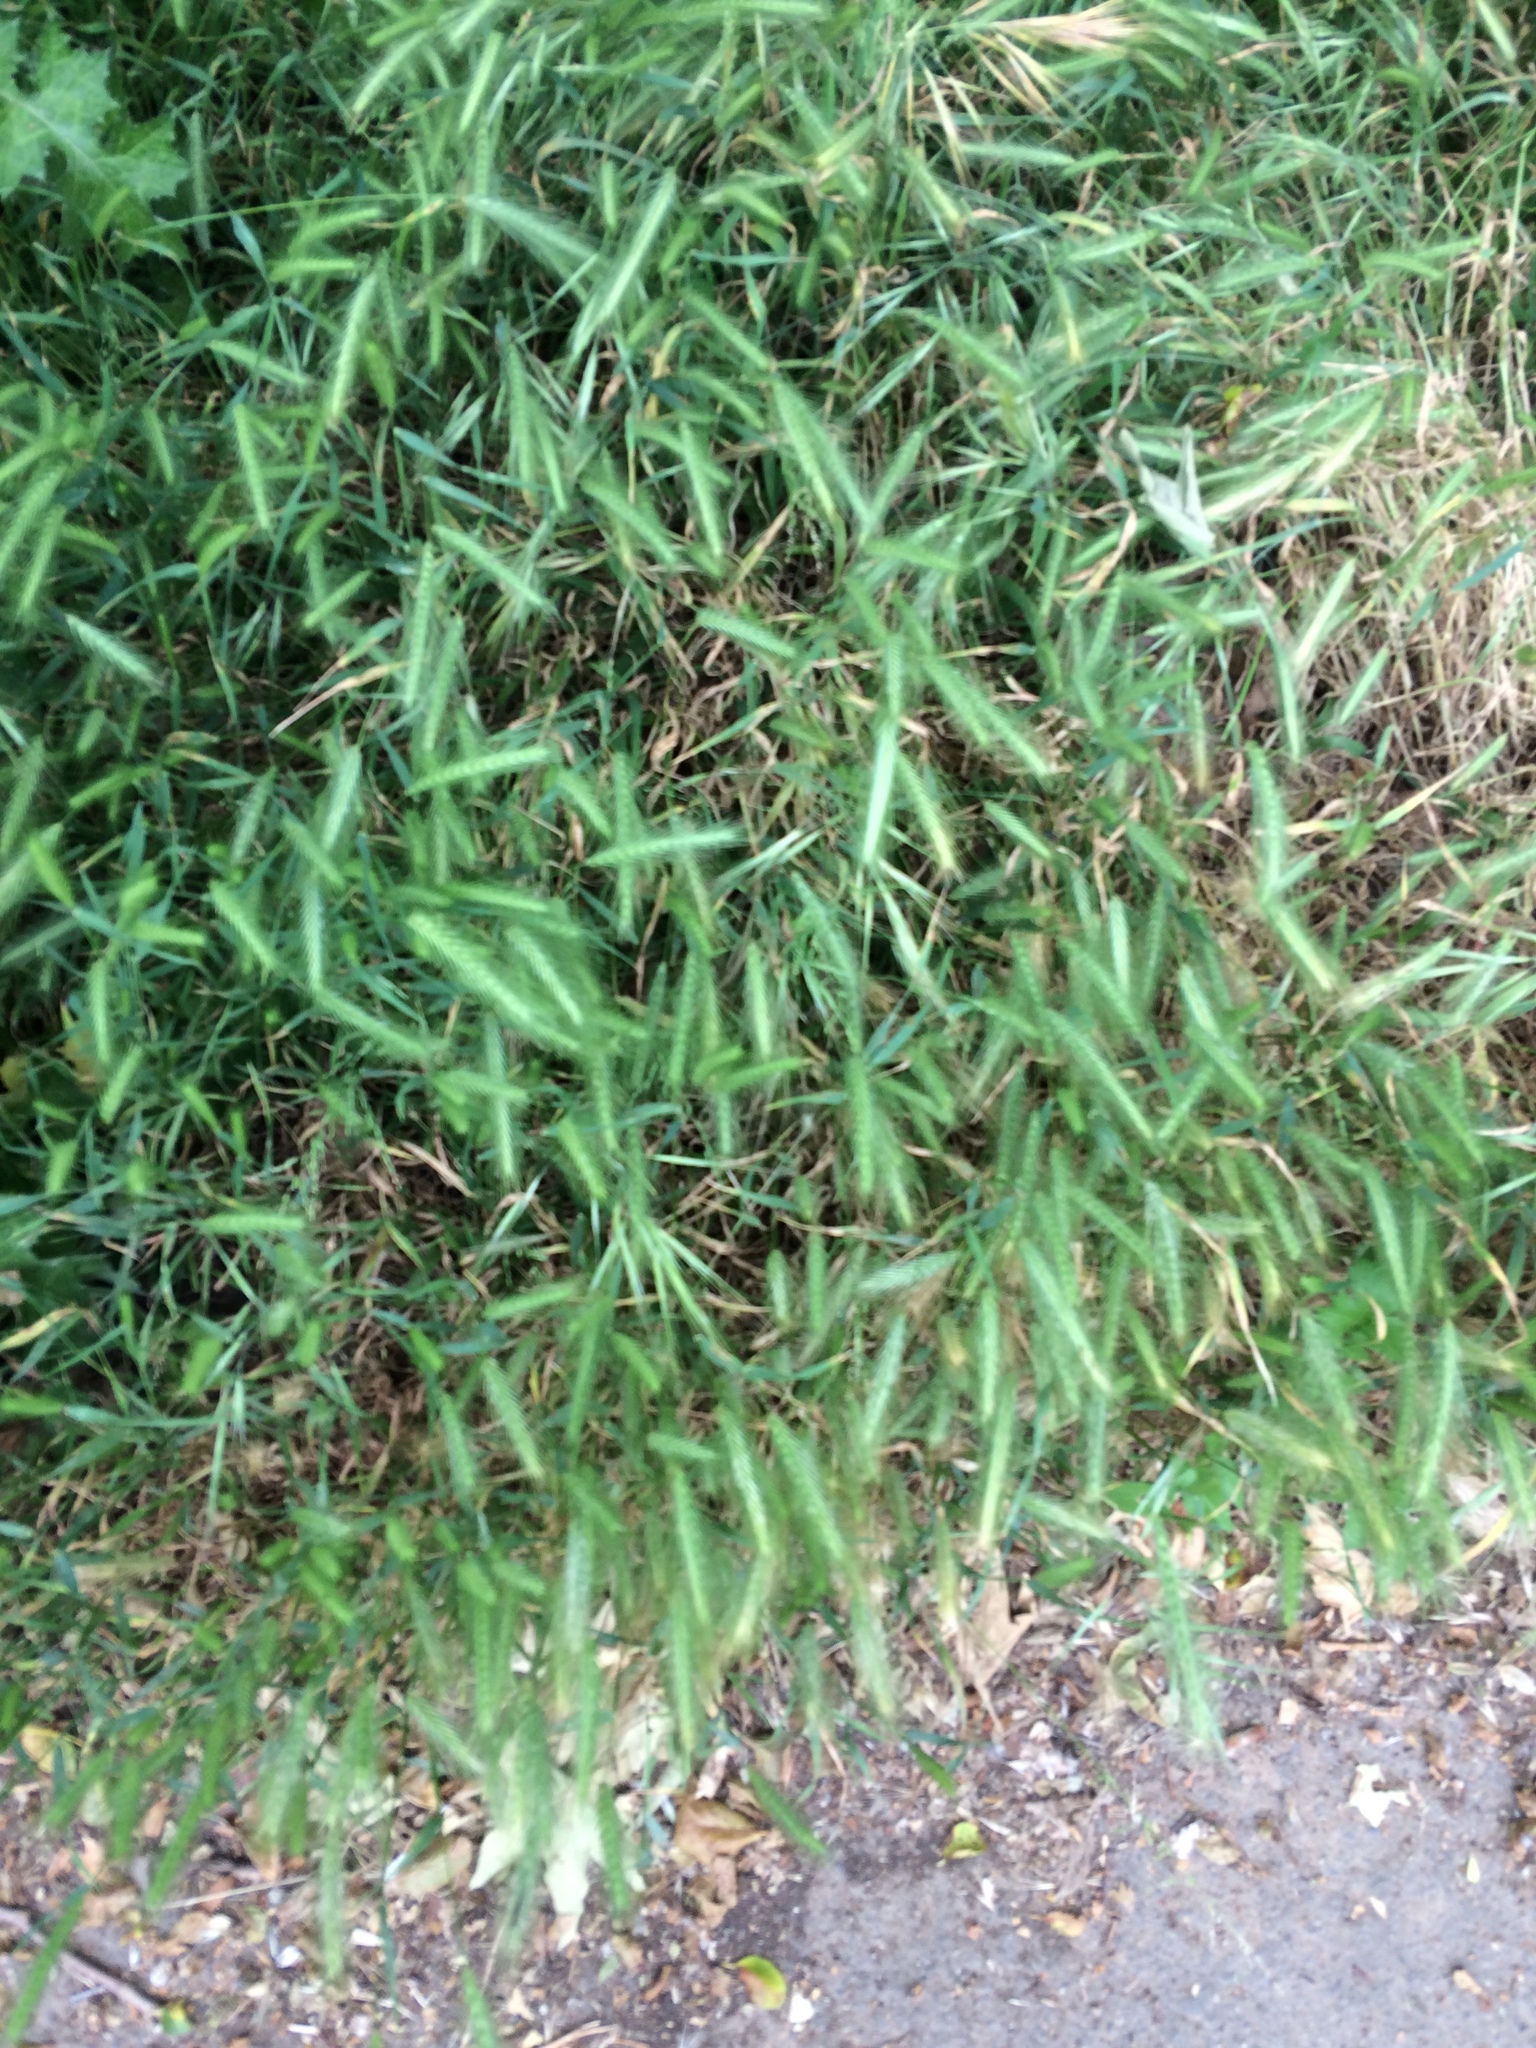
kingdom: Plantae
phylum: Tracheophyta
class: Liliopsida
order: Poales
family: Poaceae
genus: Hordeum
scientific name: Hordeum murinum
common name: Wall barley
